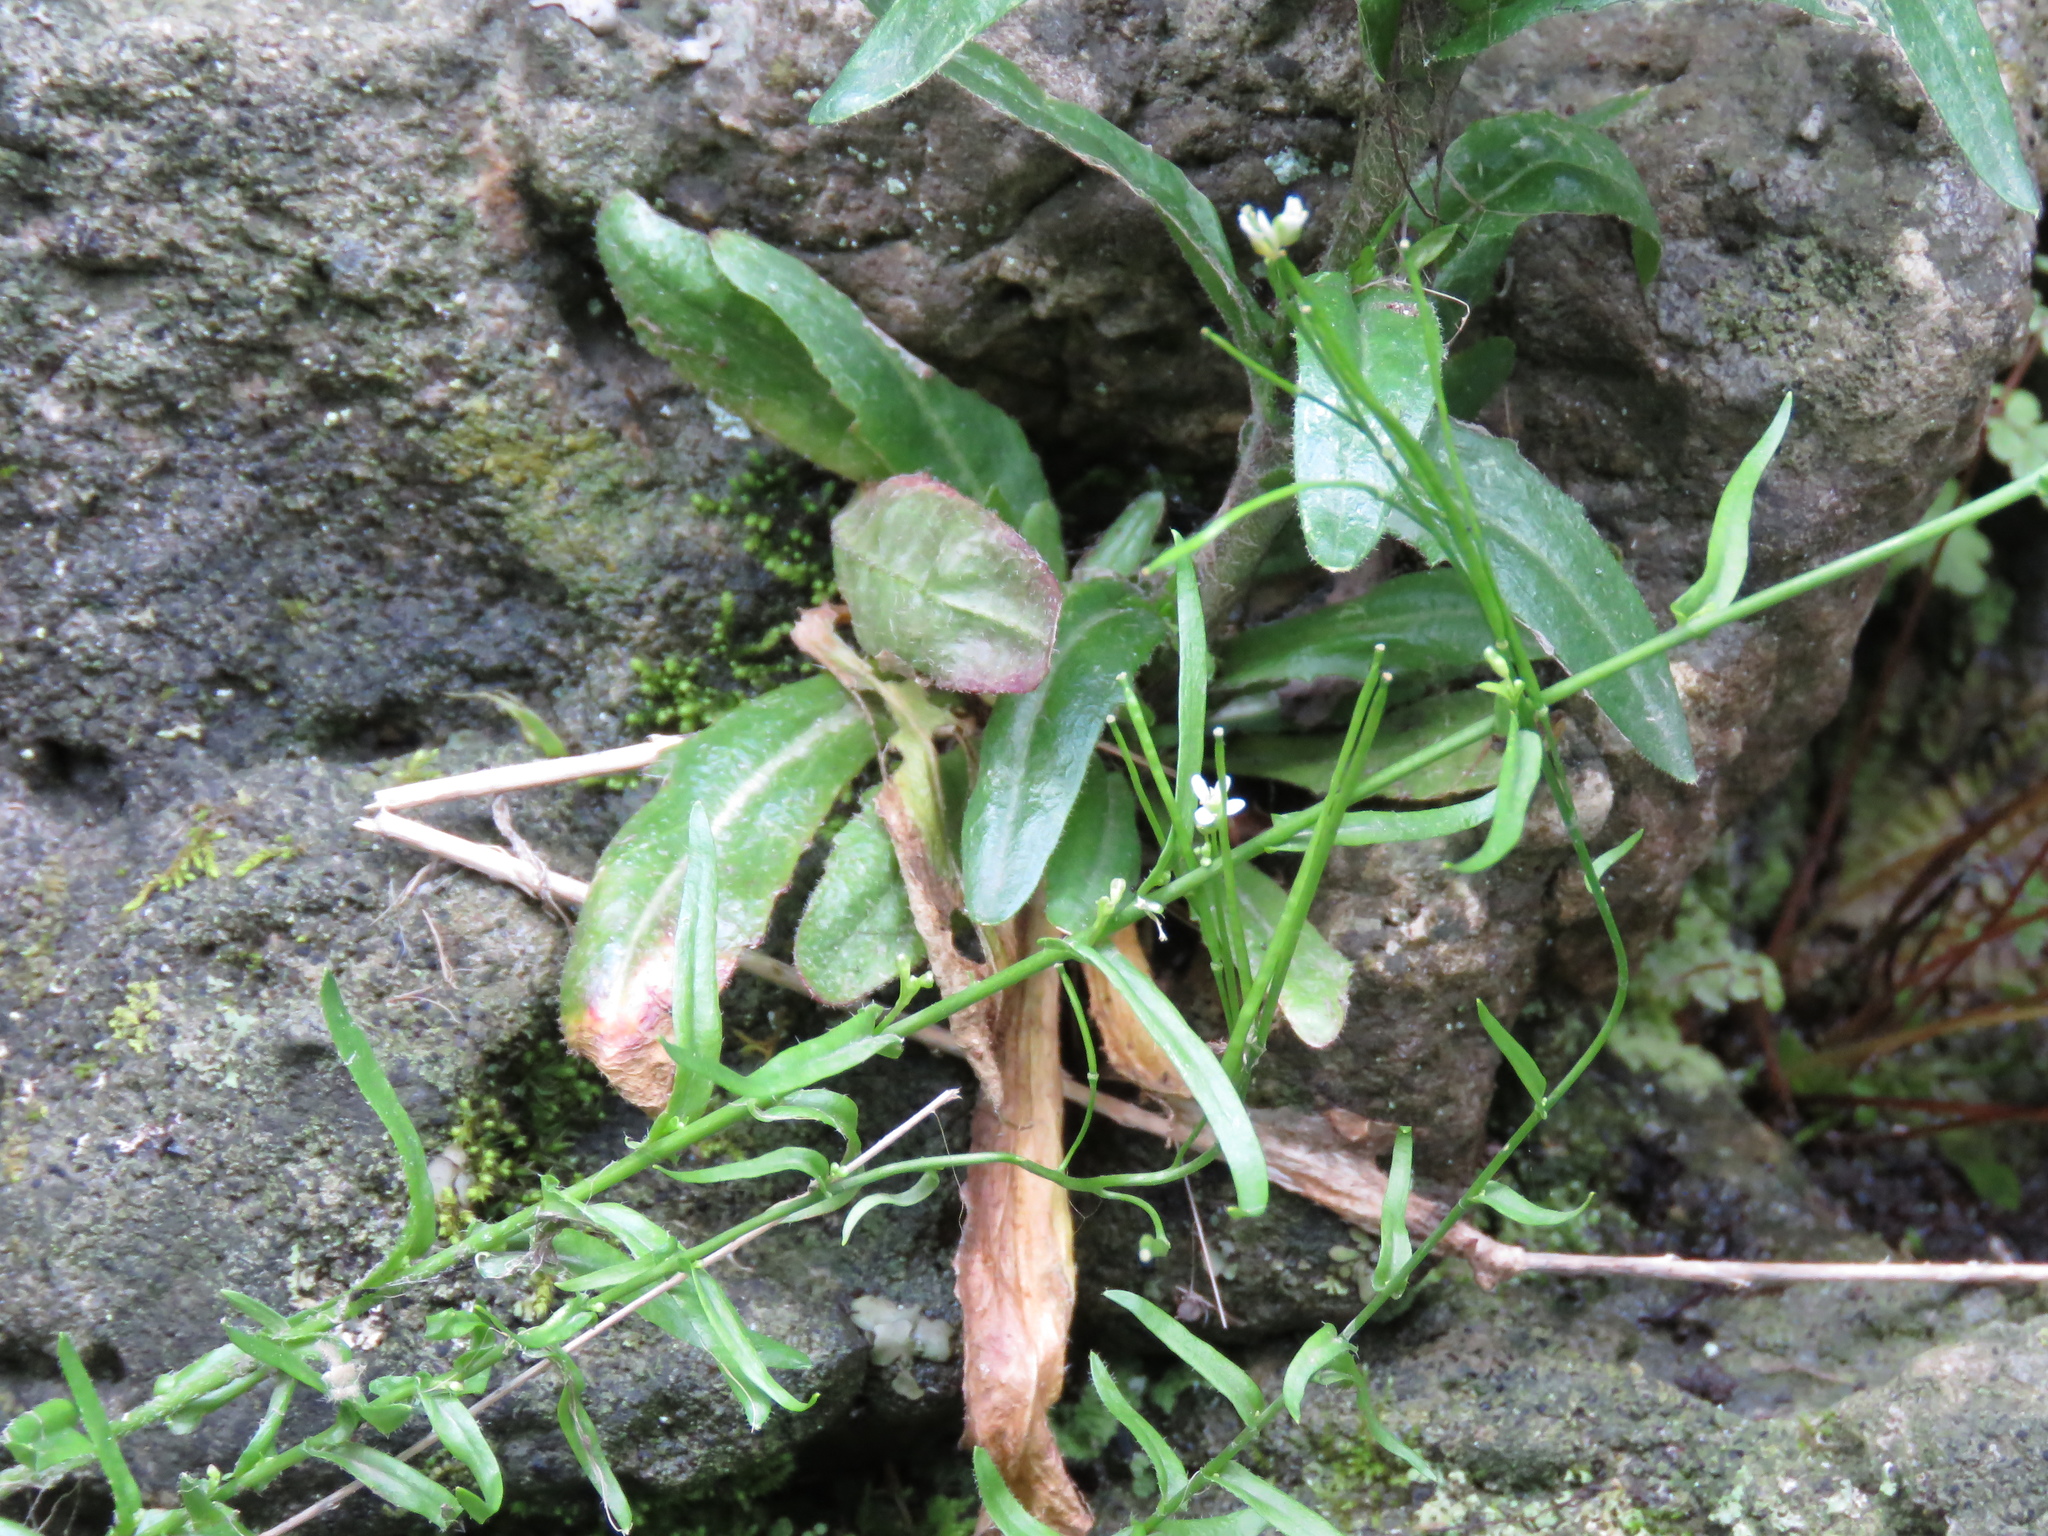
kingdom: Plantae
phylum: Tracheophyta
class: Magnoliopsida
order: Brassicales
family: Brassicaceae
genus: Arabis
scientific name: Arabis adpressipilis
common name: Soft-haired rockcress
